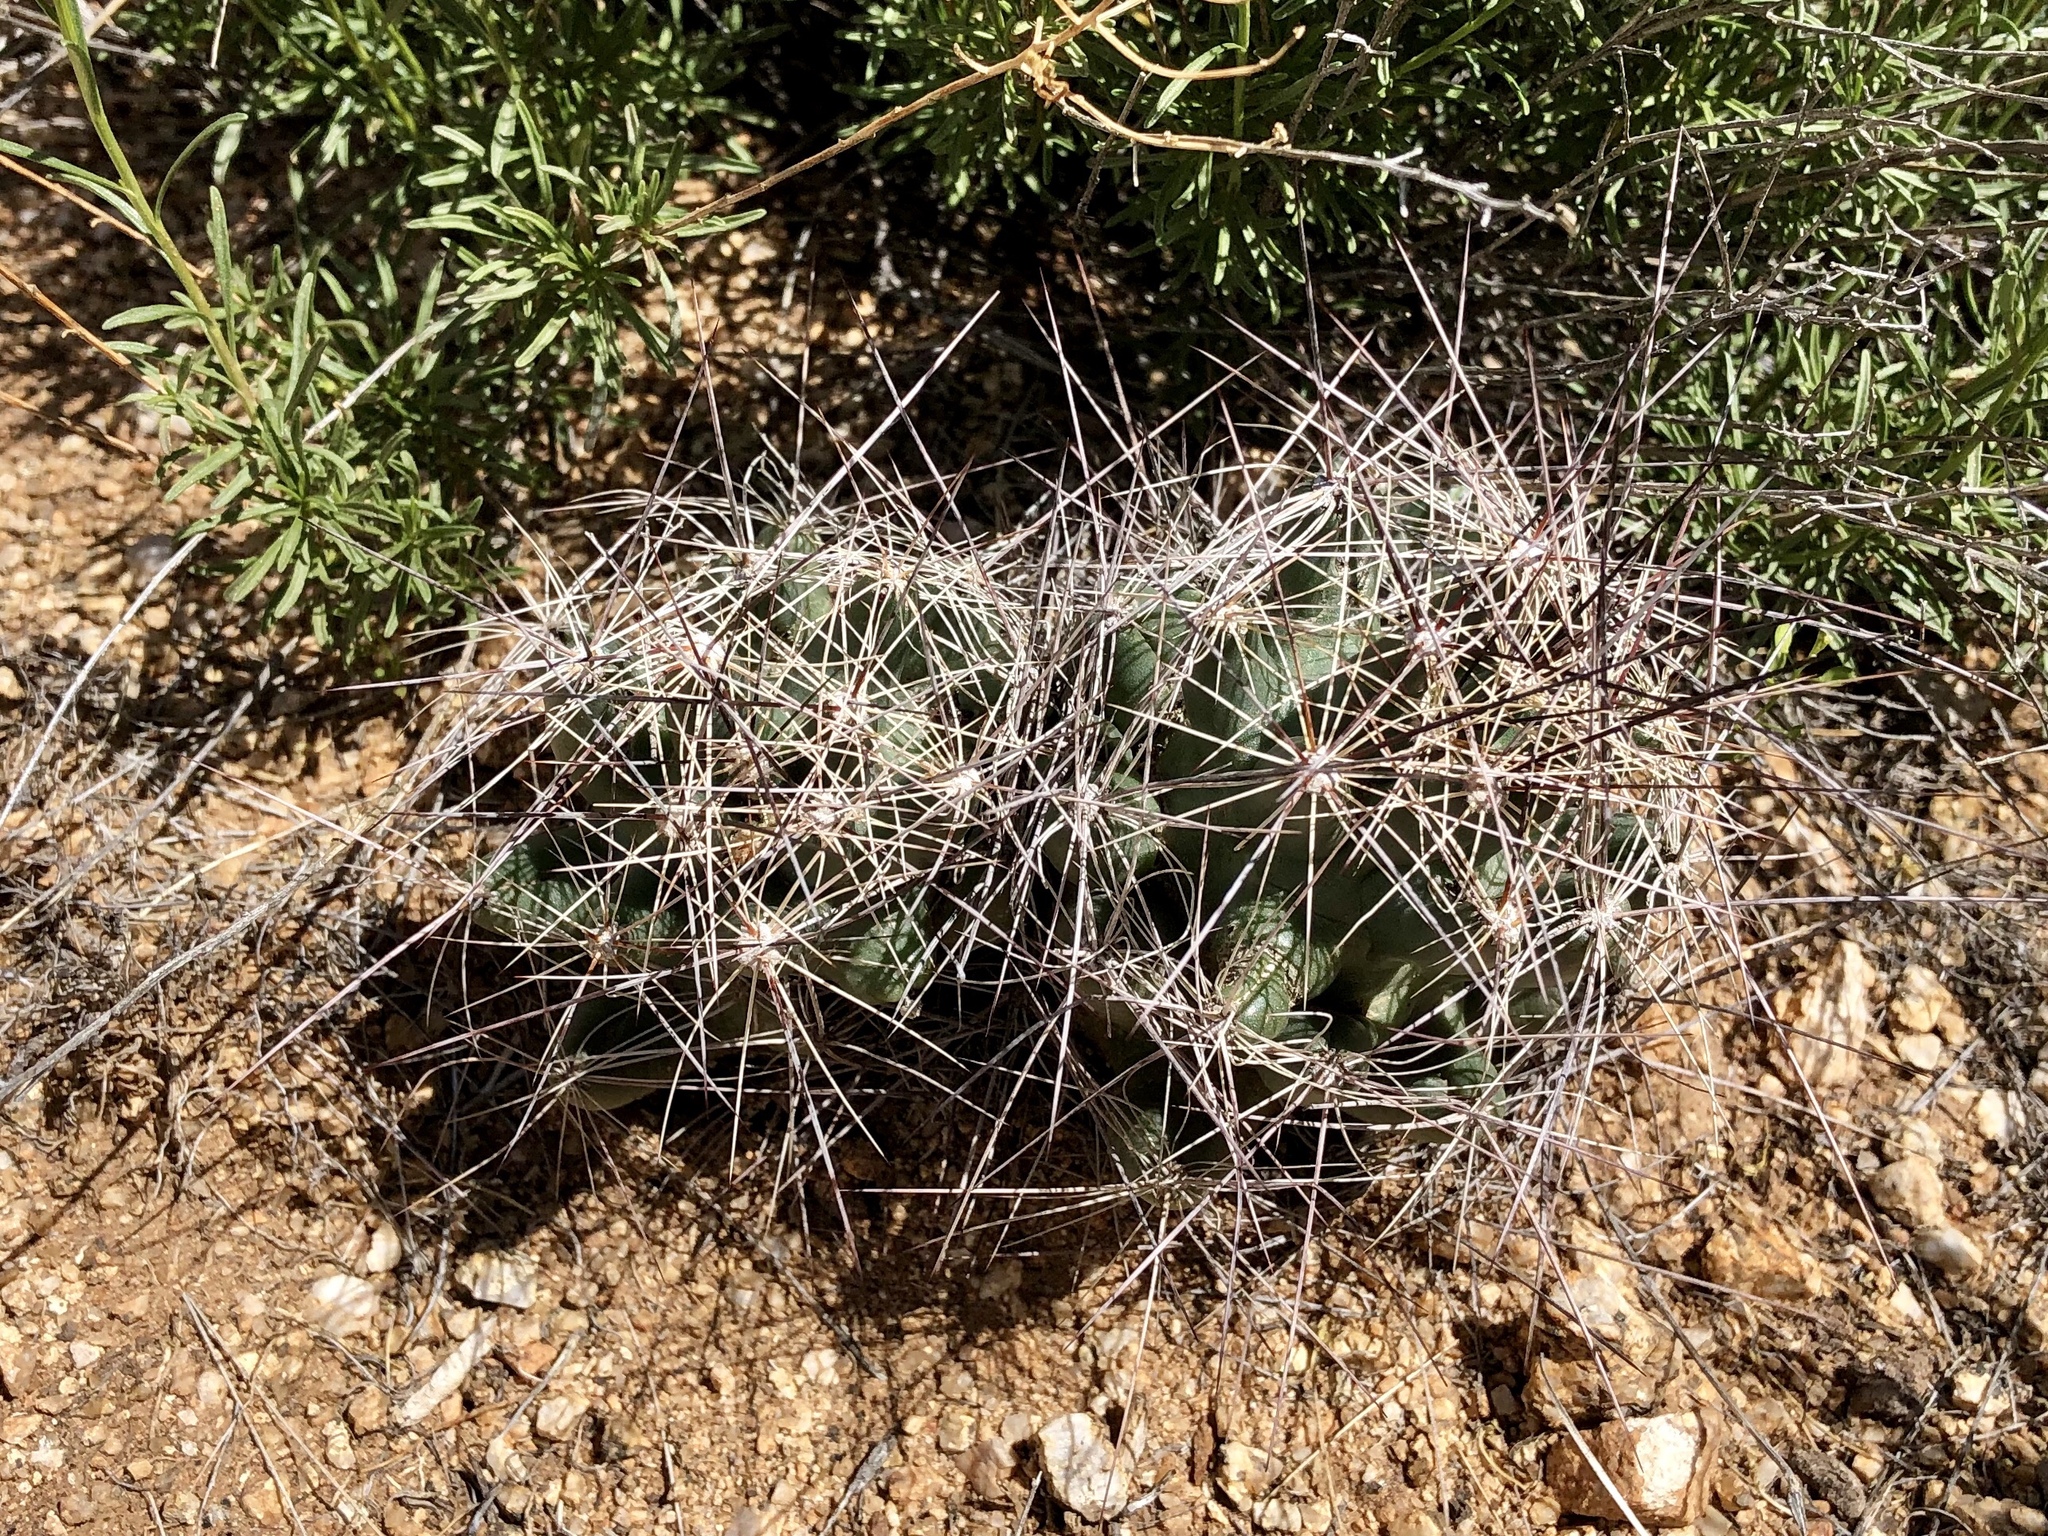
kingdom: Plantae
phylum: Tracheophyta
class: Magnoliopsida
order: Caryophyllales
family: Cactaceae
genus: Coryphantha
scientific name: Coryphantha macromeris
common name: Nipple beehive cactus
